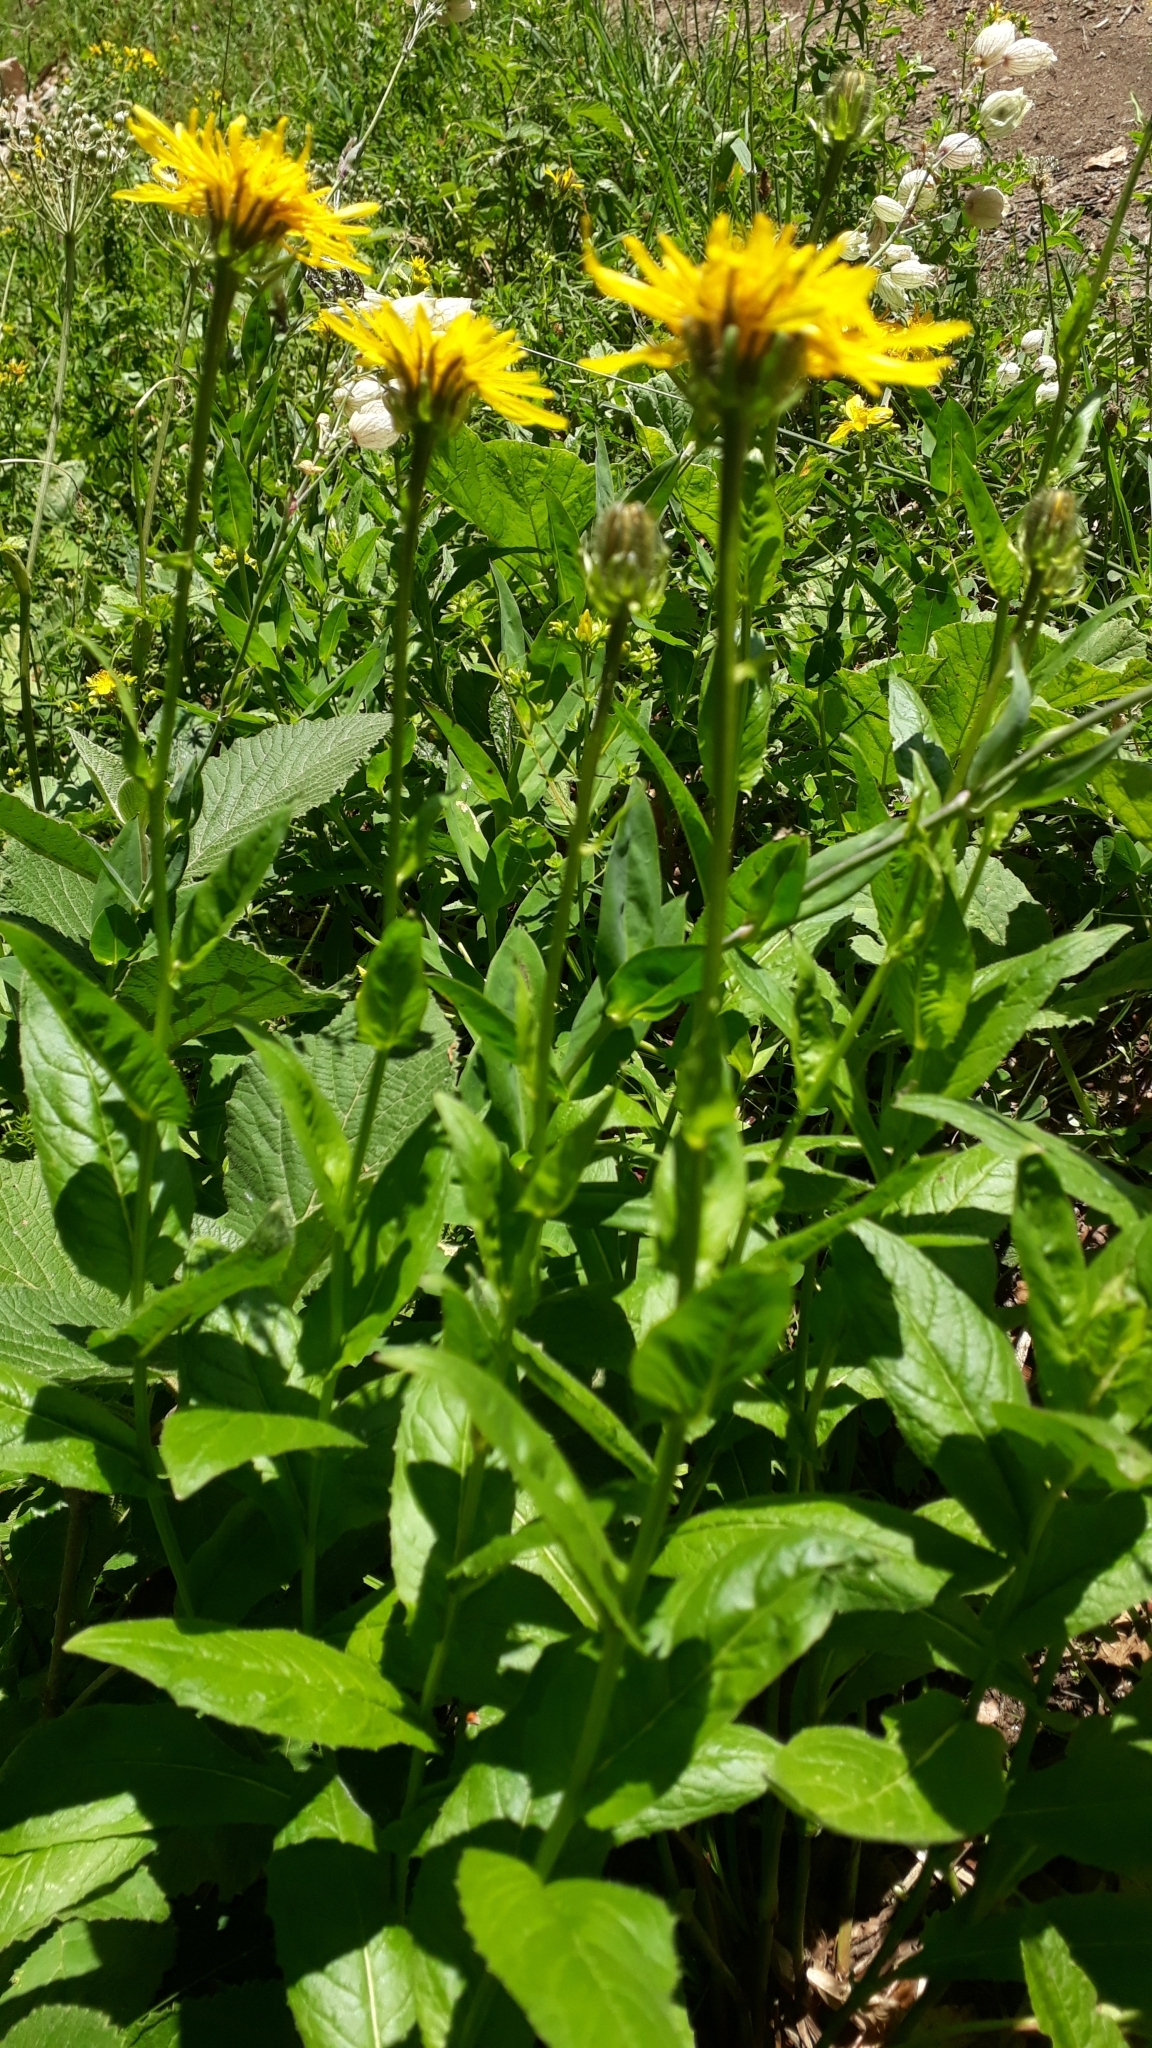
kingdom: Plantae
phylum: Tracheophyta
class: Magnoliopsida
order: Asterales
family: Asteraceae
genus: Crepis
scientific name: Crepis pyrenaica
